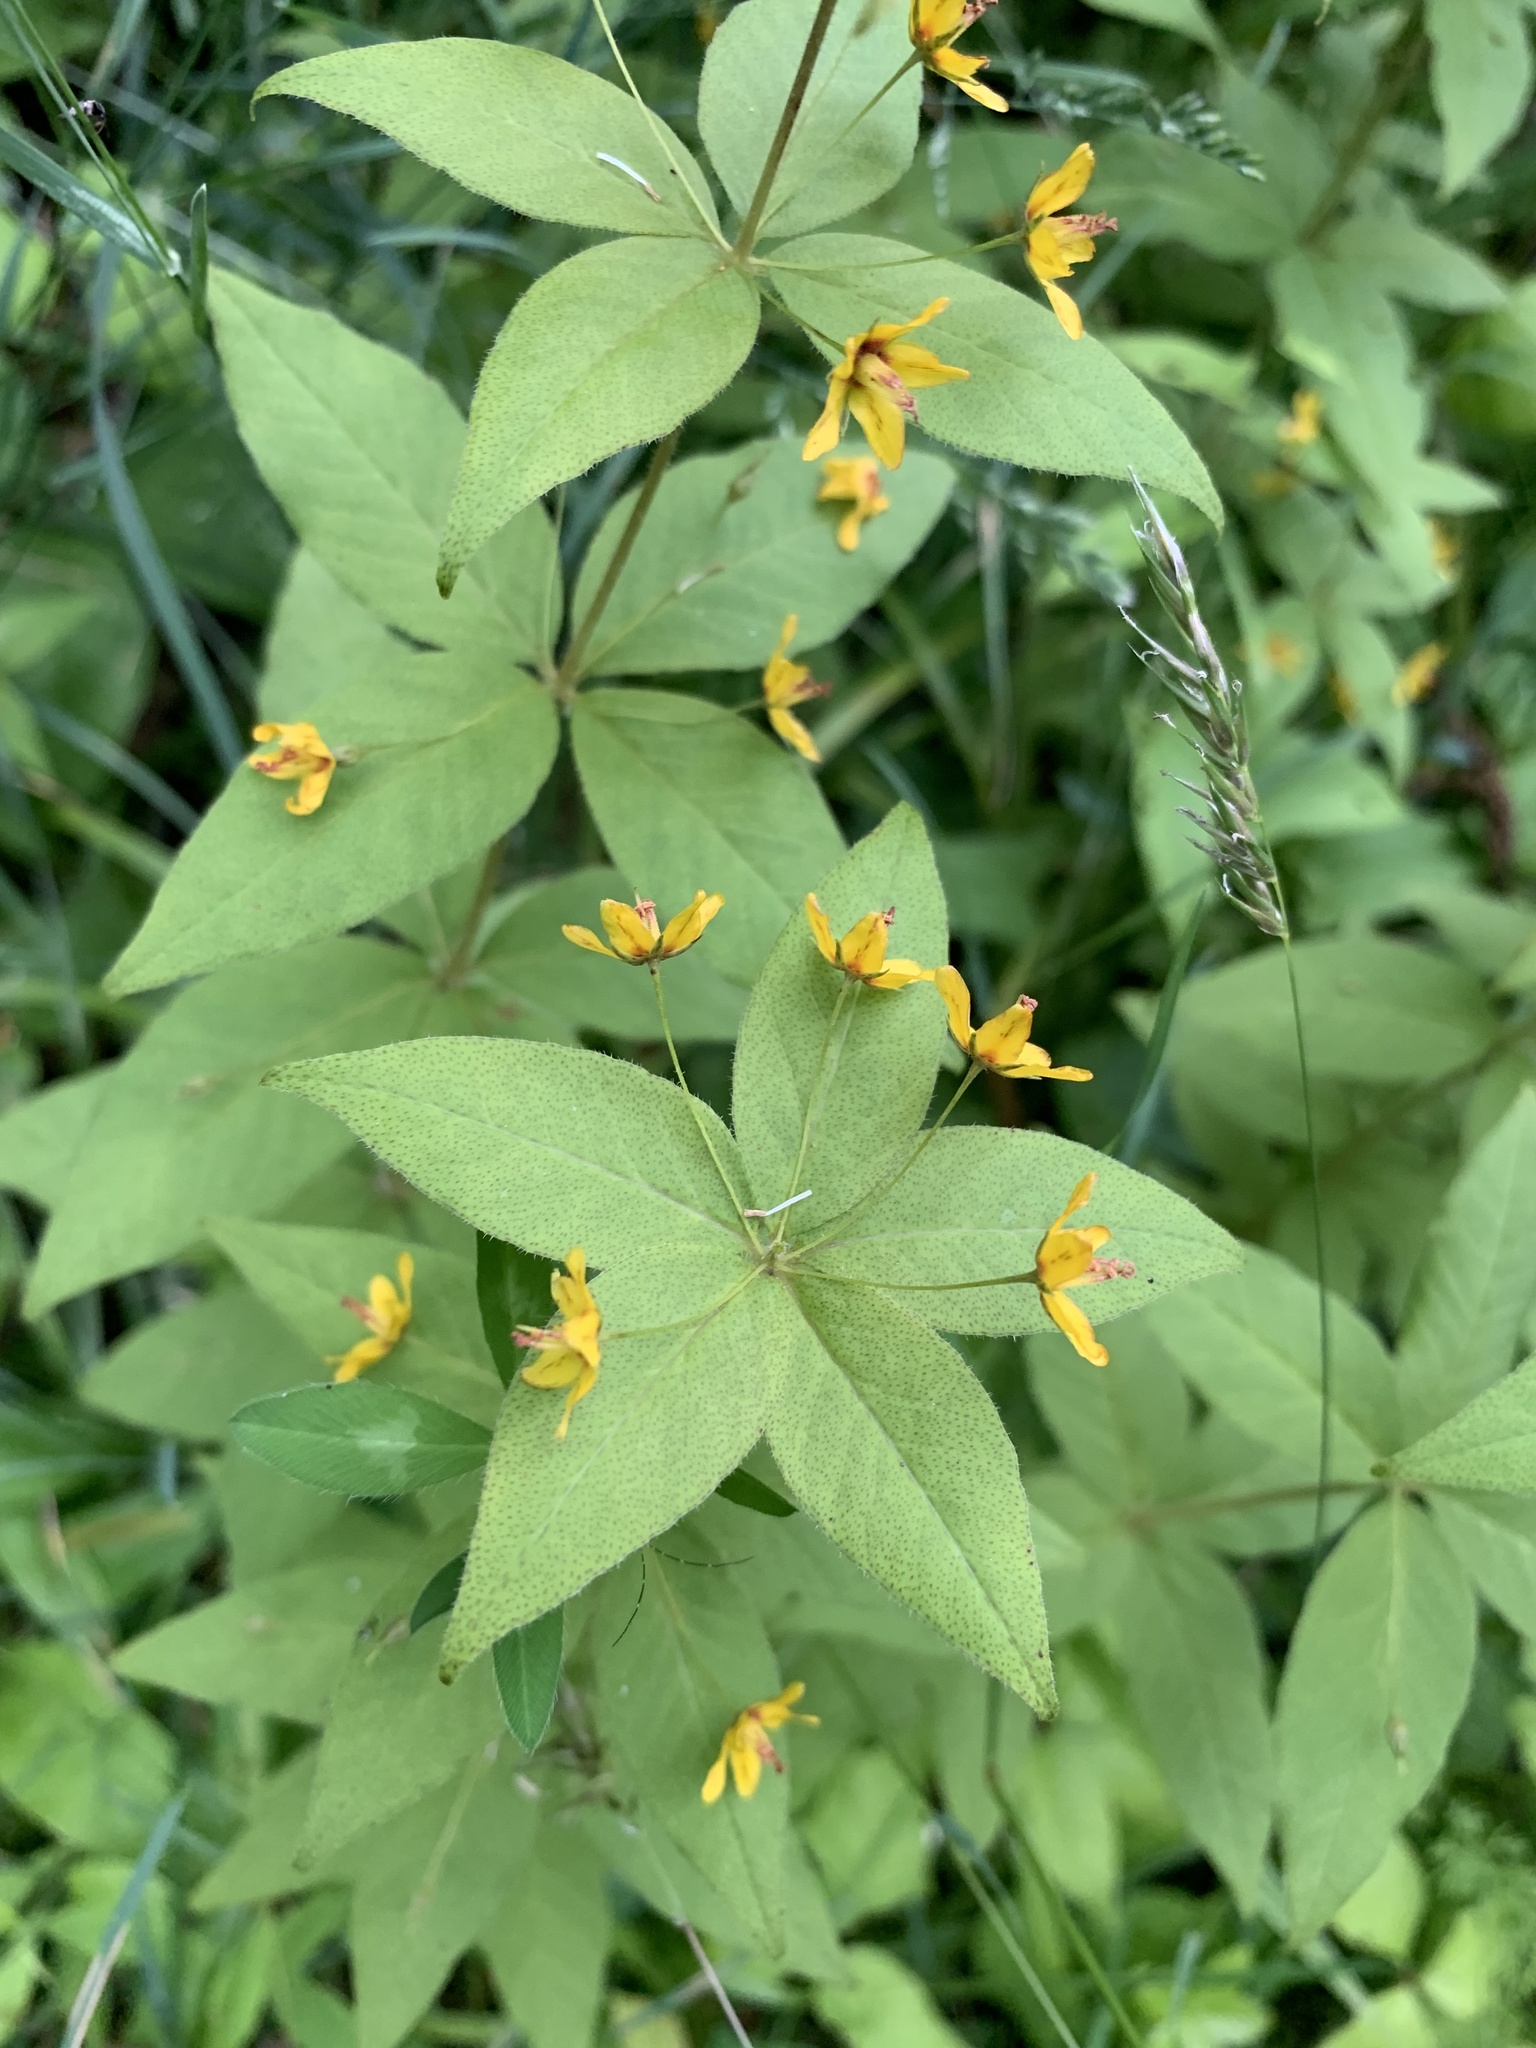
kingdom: Plantae
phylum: Tracheophyta
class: Magnoliopsida
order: Ericales
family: Primulaceae
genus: Lysimachia
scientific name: Lysimachia quadrifolia
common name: Whorled loosestrife
